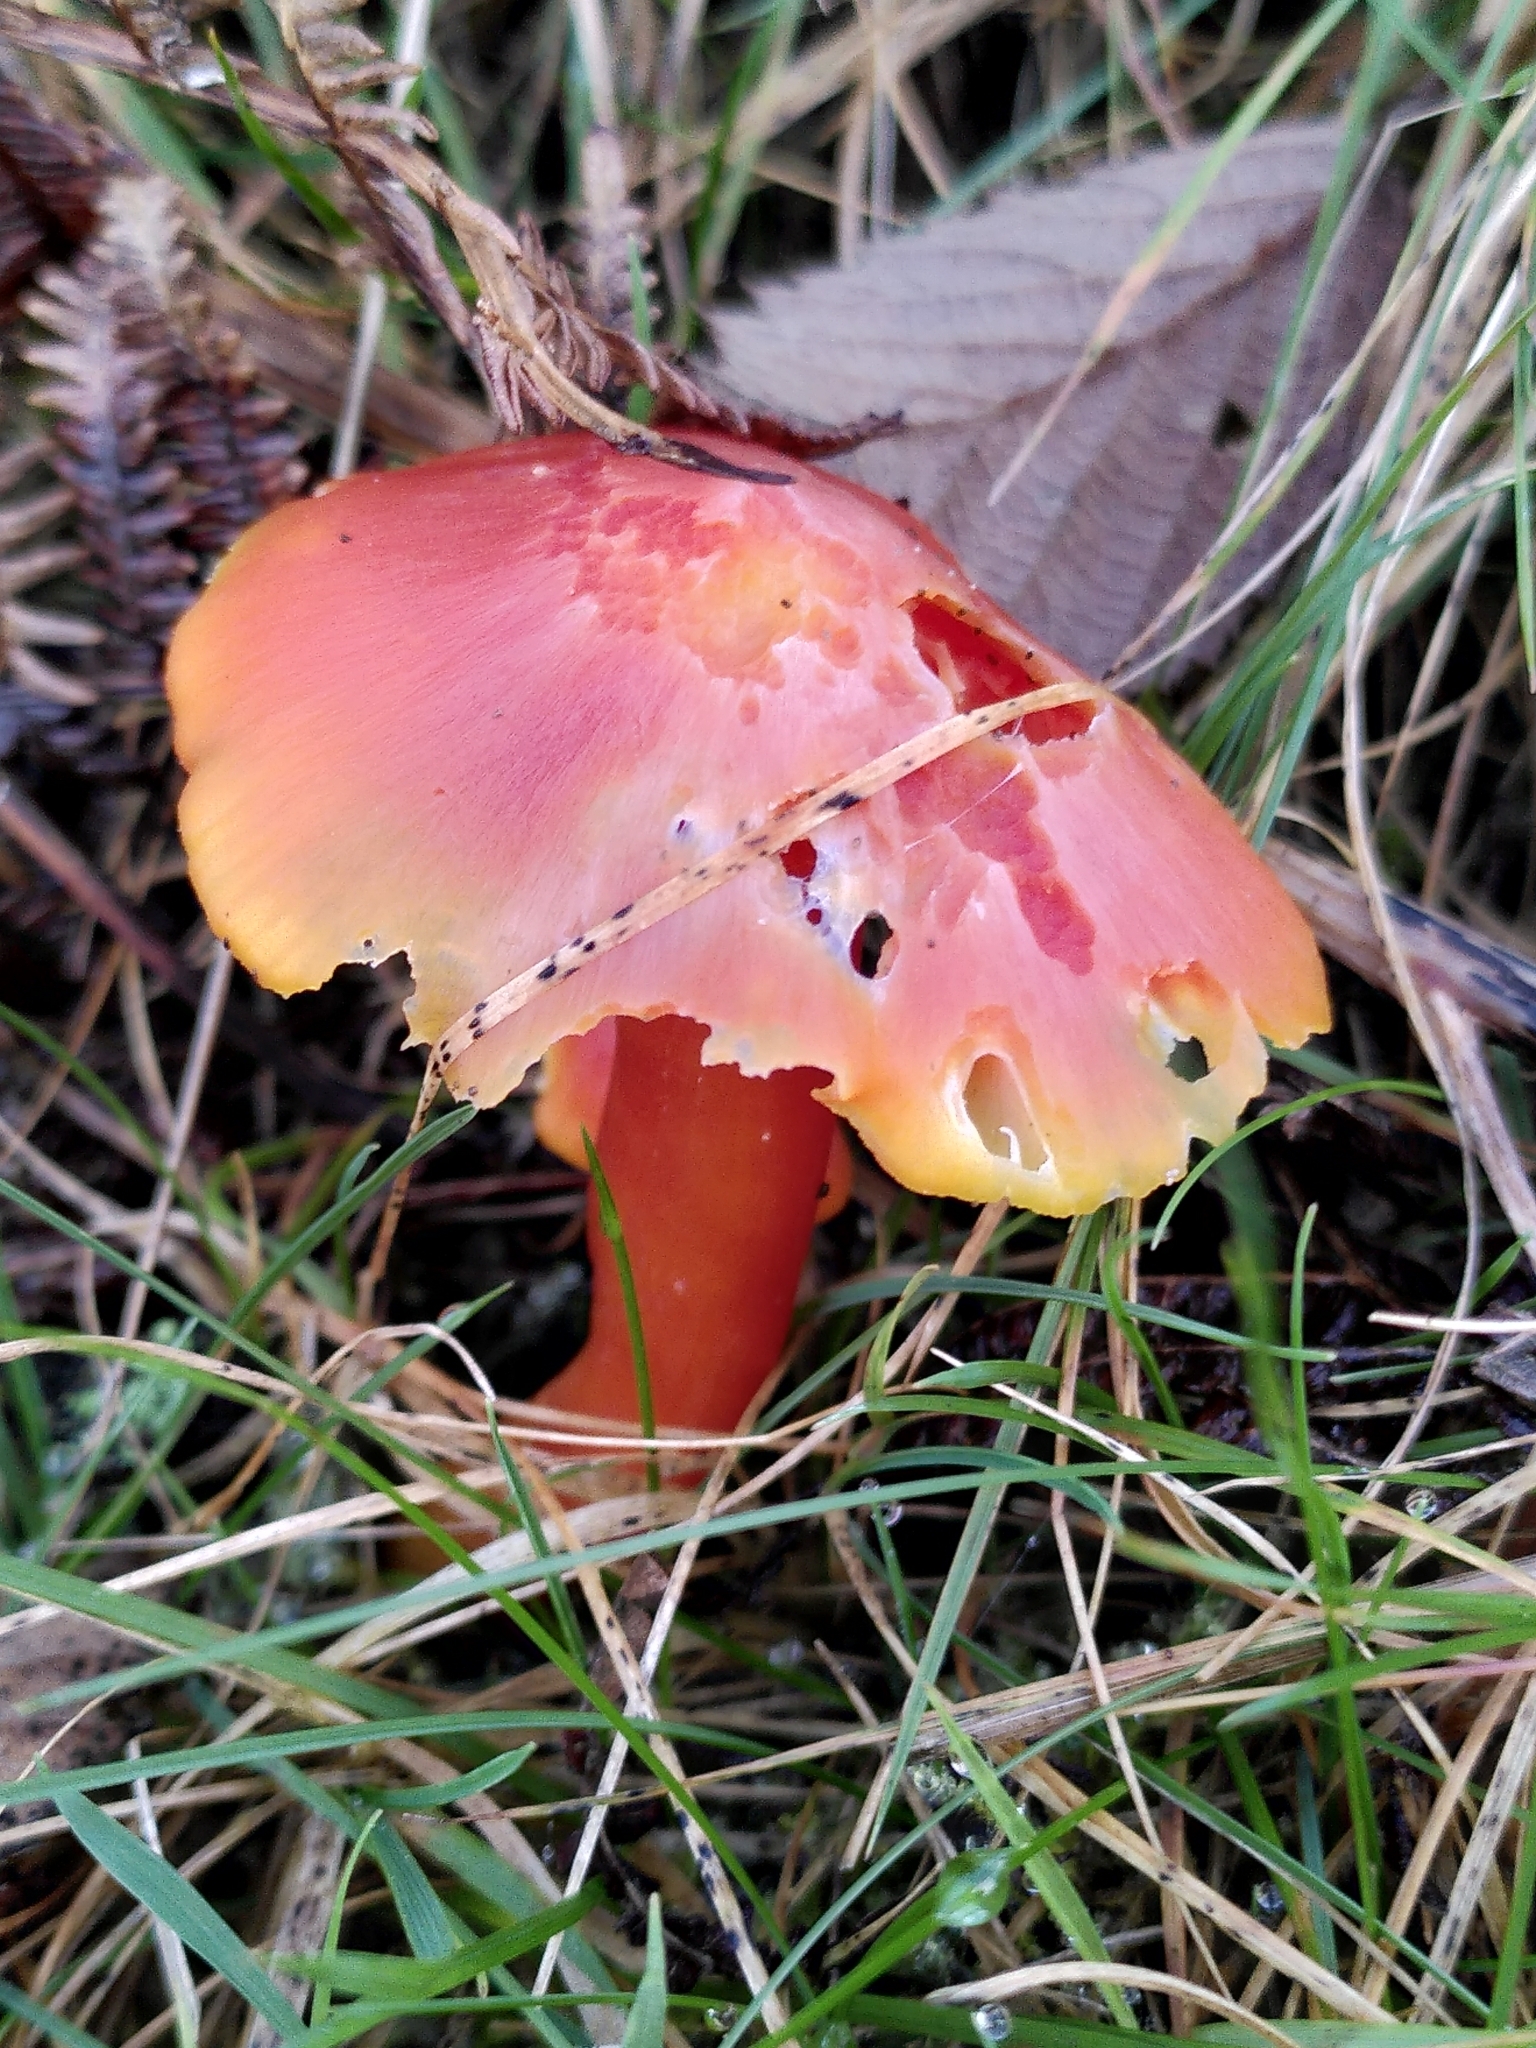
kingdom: Fungi
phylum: Basidiomycota
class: Agaricomycetes
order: Agaricales
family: Hygrophoraceae
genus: Hygrocybe
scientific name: Hygrocybe coccinea
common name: Scarlet hood
